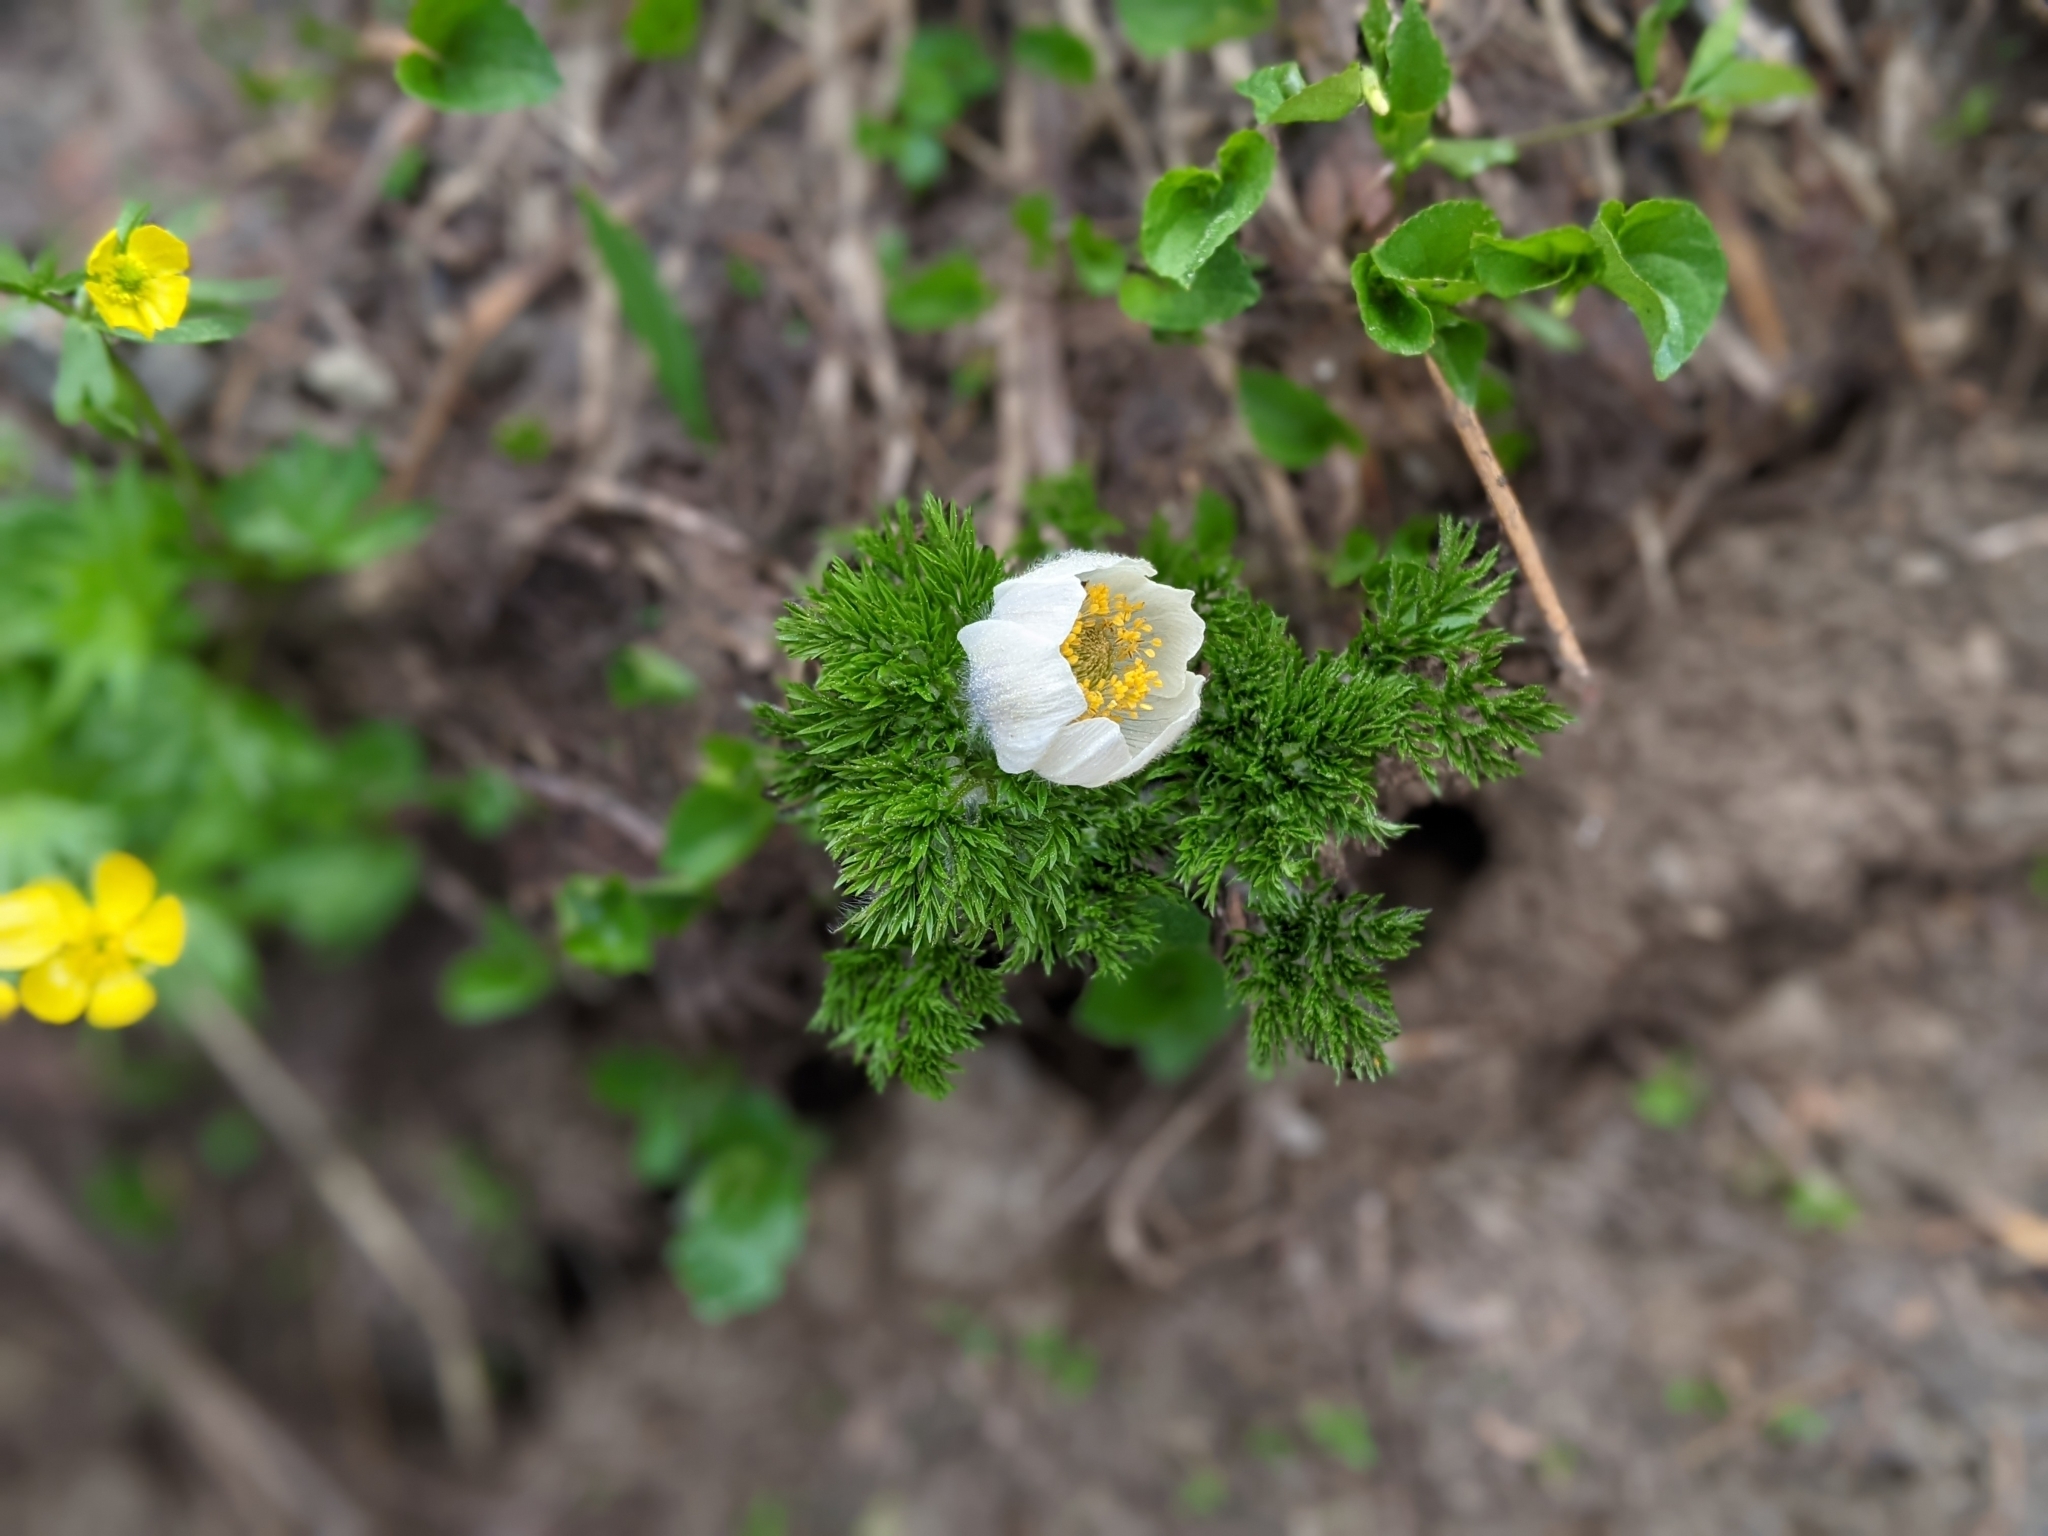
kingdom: Plantae
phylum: Tracheophyta
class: Magnoliopsida
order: Ranunculales
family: Ranunculaceae
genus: Pulsatilla
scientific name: Pulsatilla occidentalis
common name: Mountain pasqueflower
